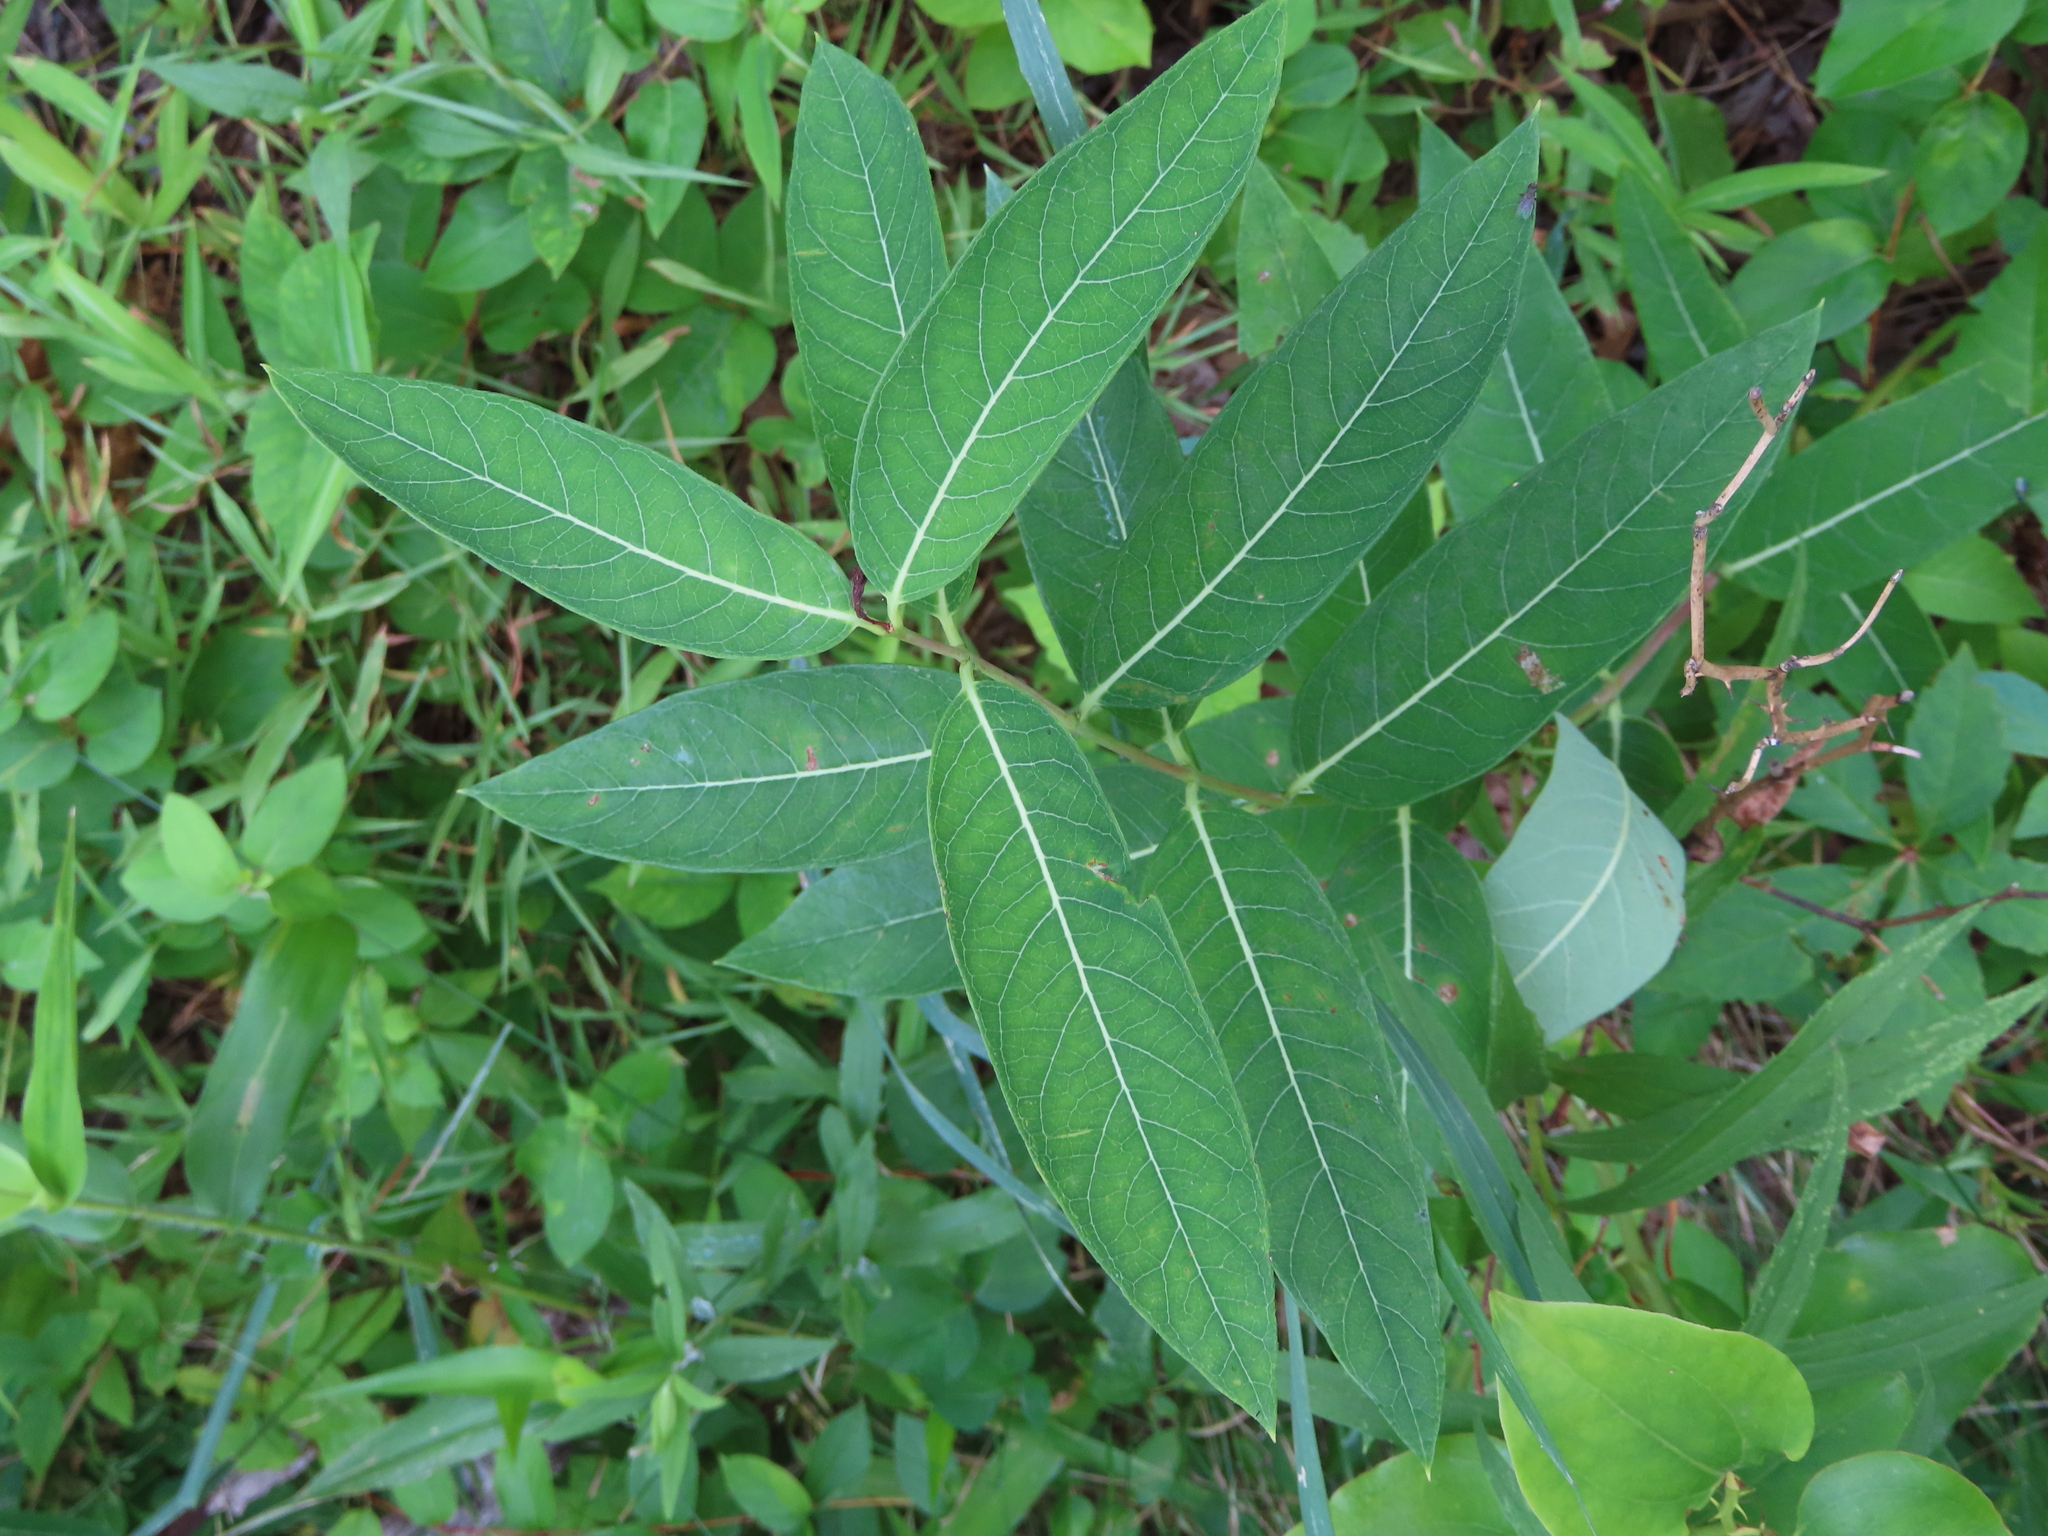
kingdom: Plantae
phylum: Tracheophyta
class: Magnoliopsida
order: Gentianales
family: Apocynaceae
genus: Apocynum
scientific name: Apocynum cannabinum
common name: Hemp dogbane
